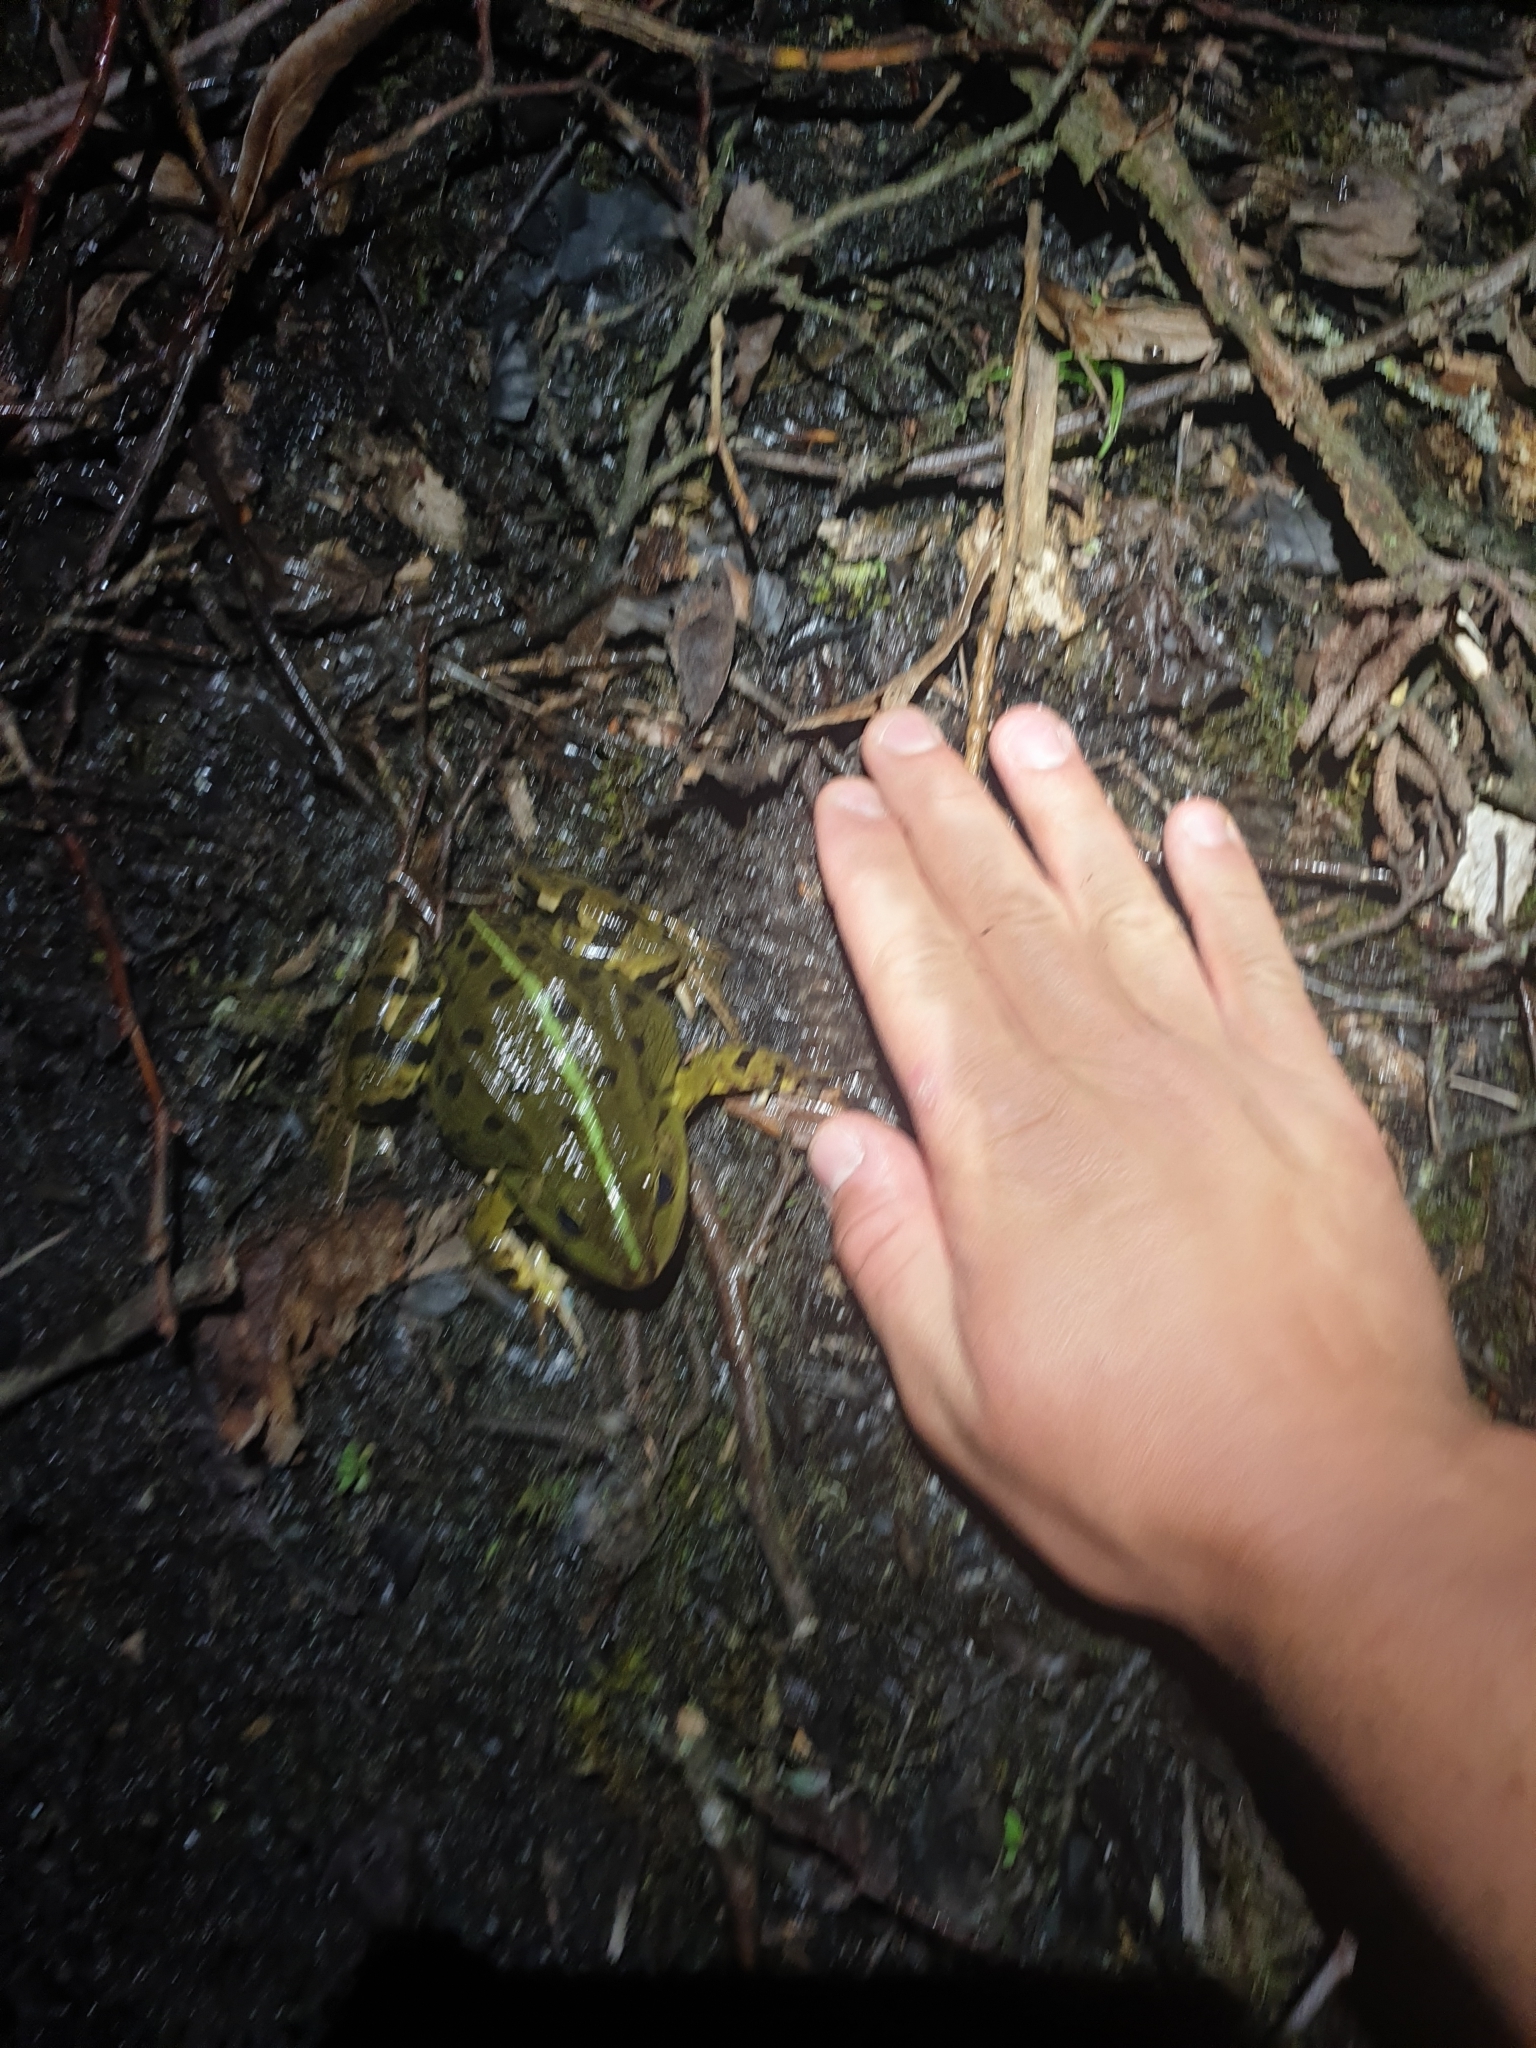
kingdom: Animalia
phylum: Chordata
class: Amphibia
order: Anura
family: Ranidae
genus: Pelophylax
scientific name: Pelophylax
